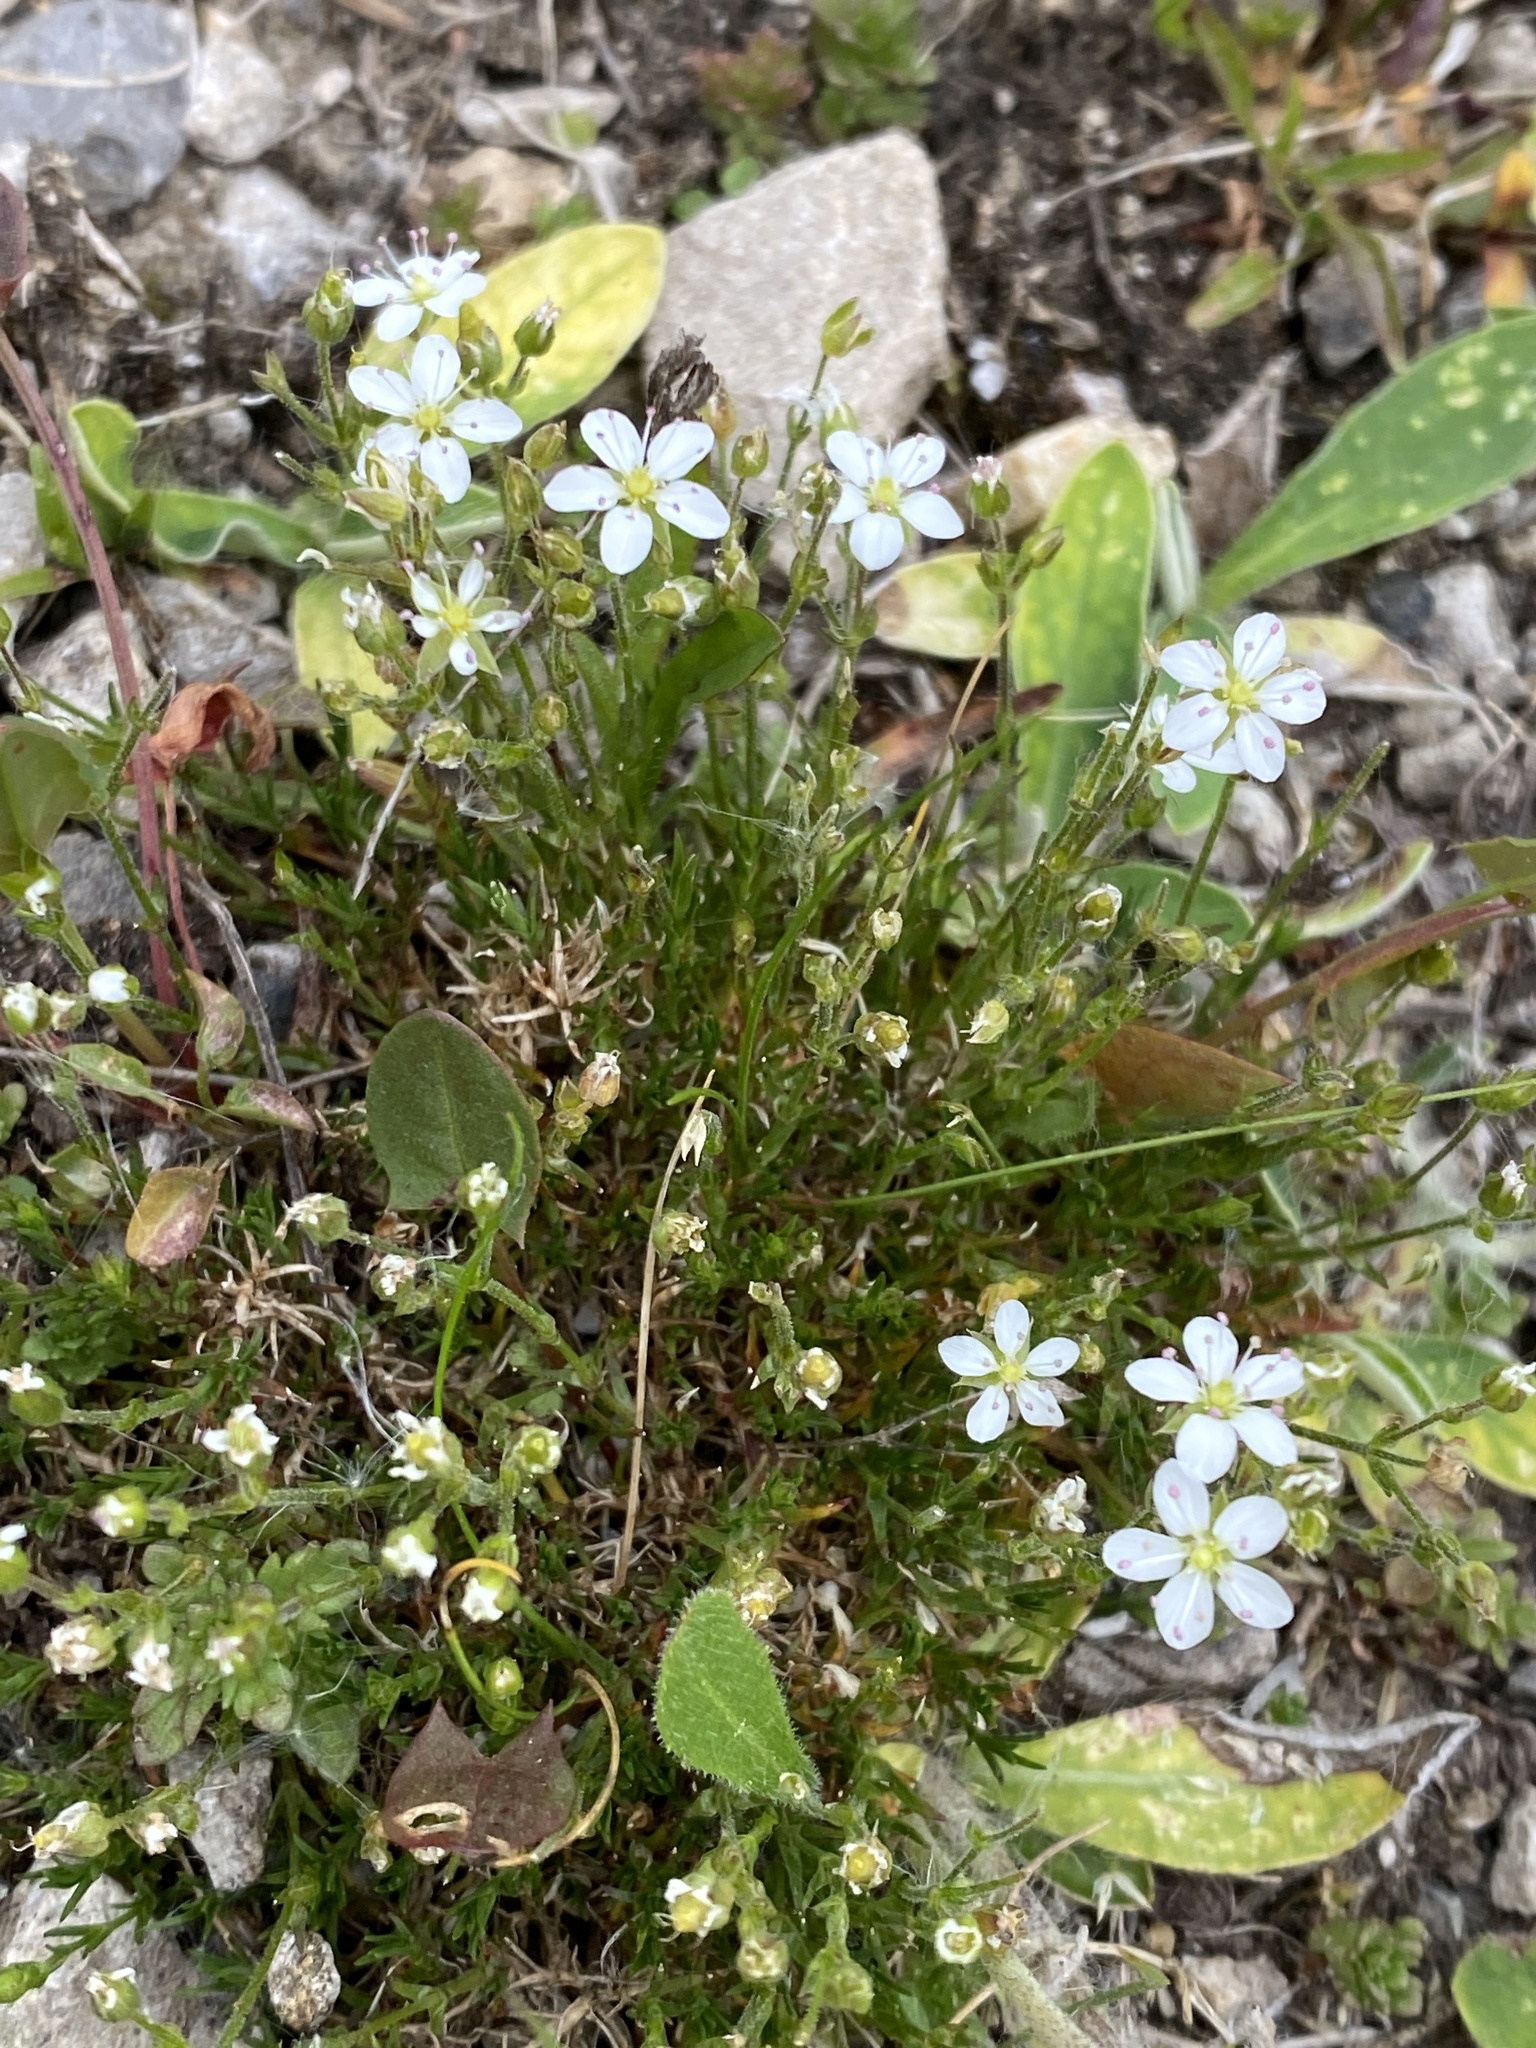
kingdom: Plantae
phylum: Tracheophyta
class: Magnoliopsida
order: Caryophyllales
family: Caryophyllaceae
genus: Sagina
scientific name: Sagina nodosa
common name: Knotted pearlwort
